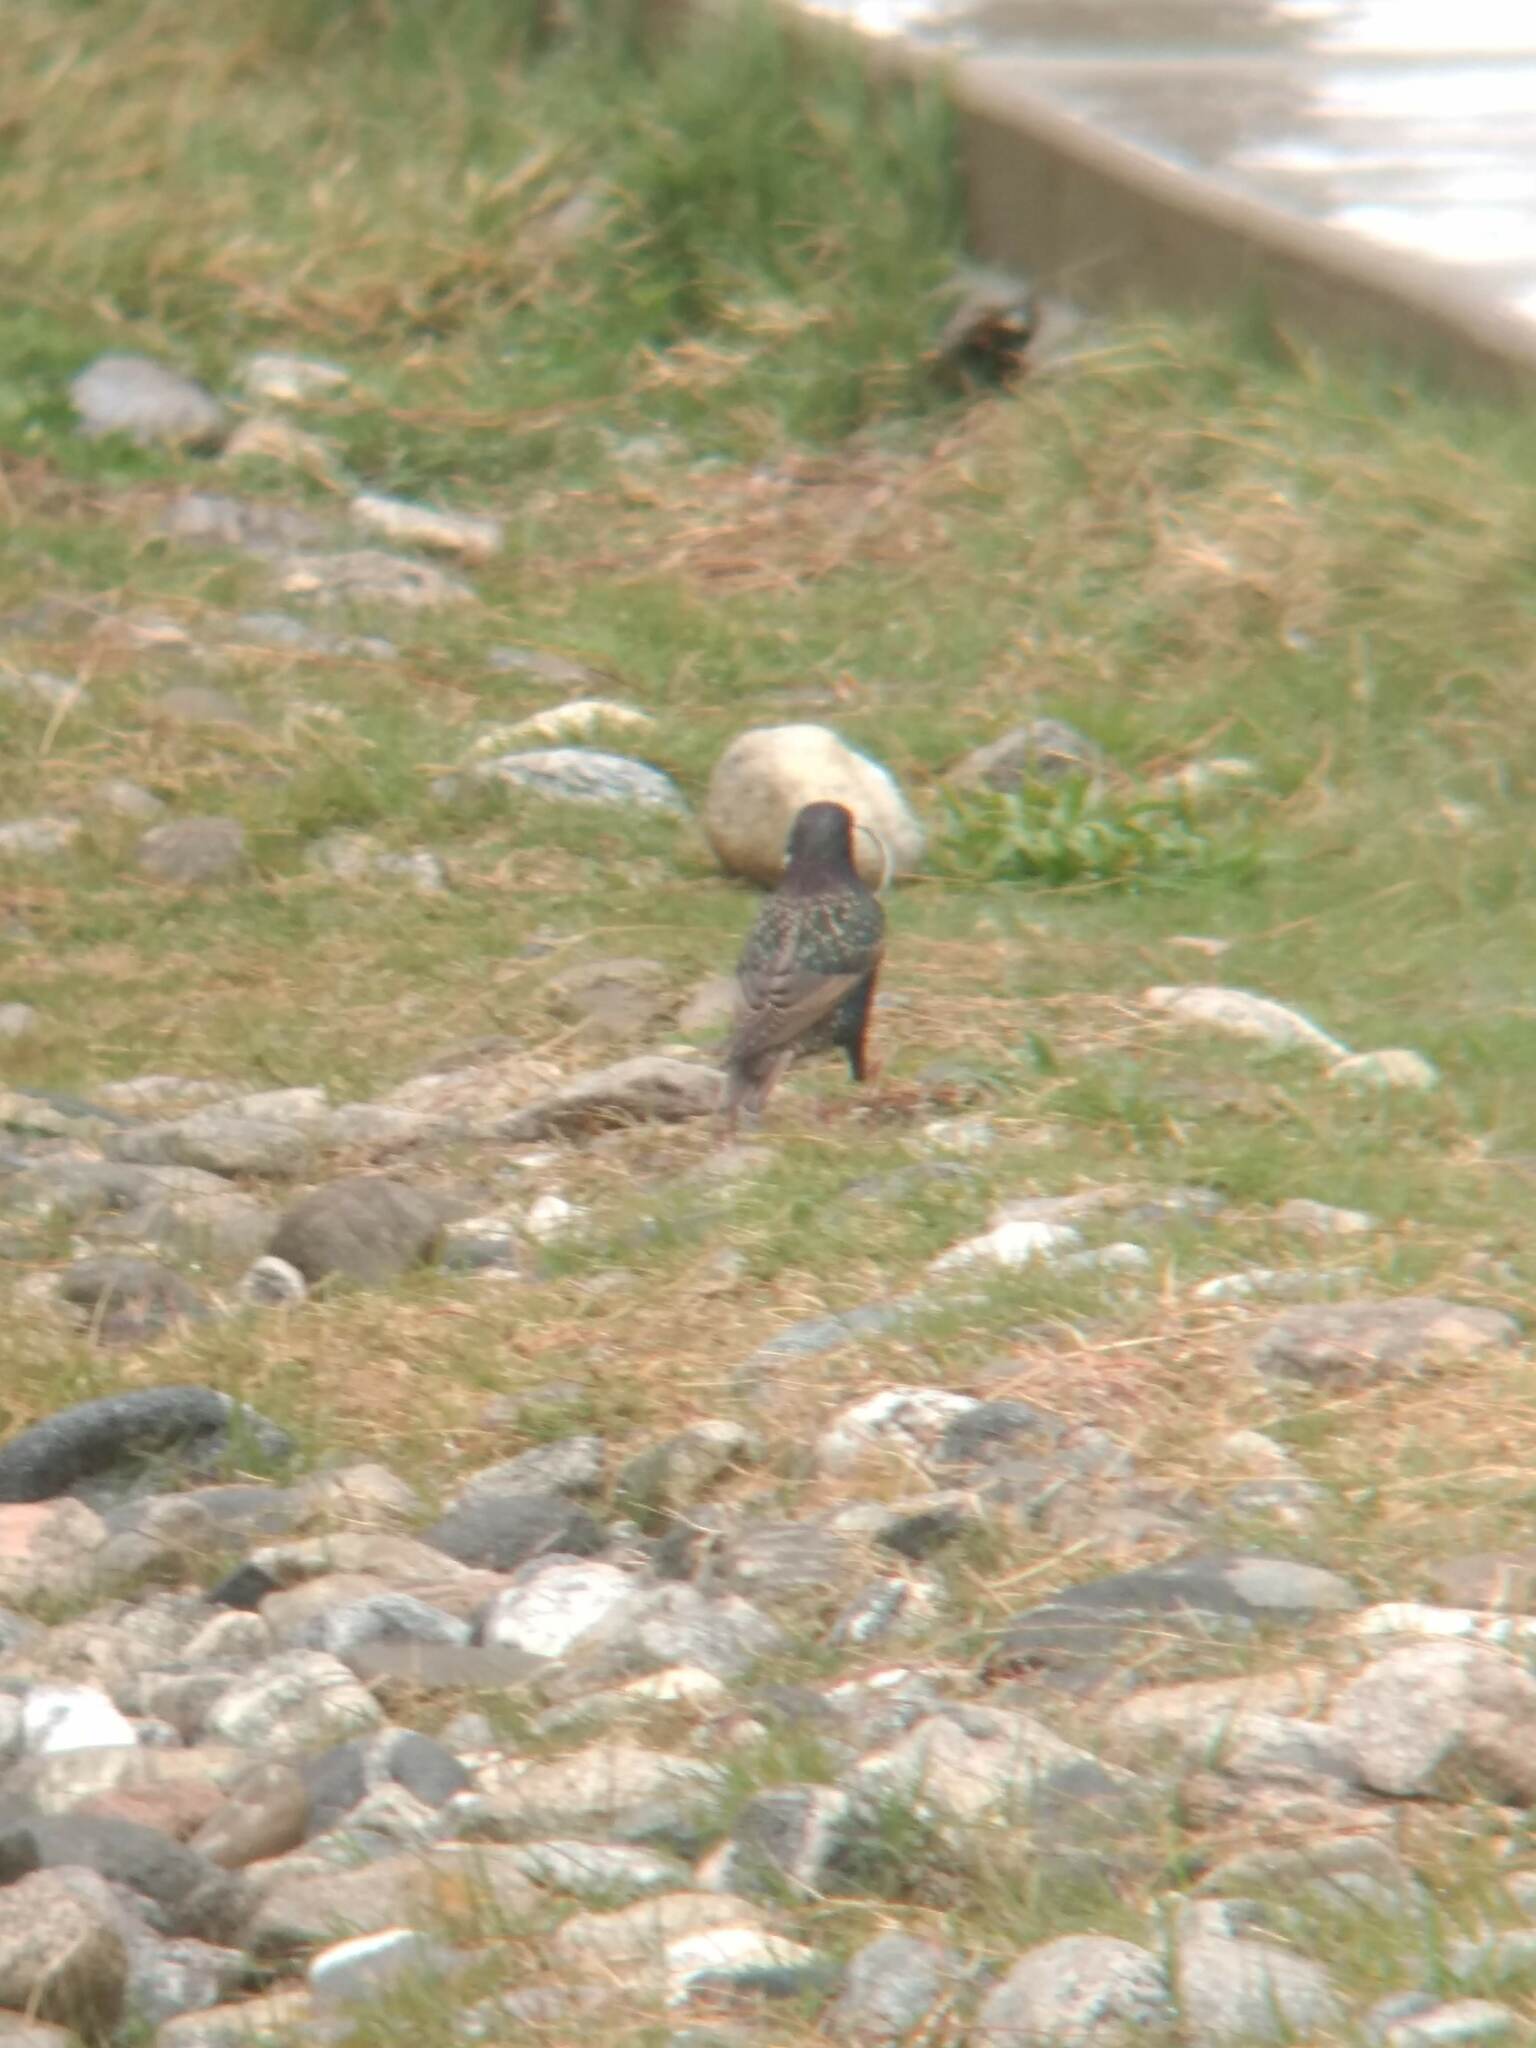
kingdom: Animalia
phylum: Chordata
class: Aves
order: Passeriformes
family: Sturnidae
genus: Sturnus
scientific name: Sturnus vulgaris
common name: Common starling
